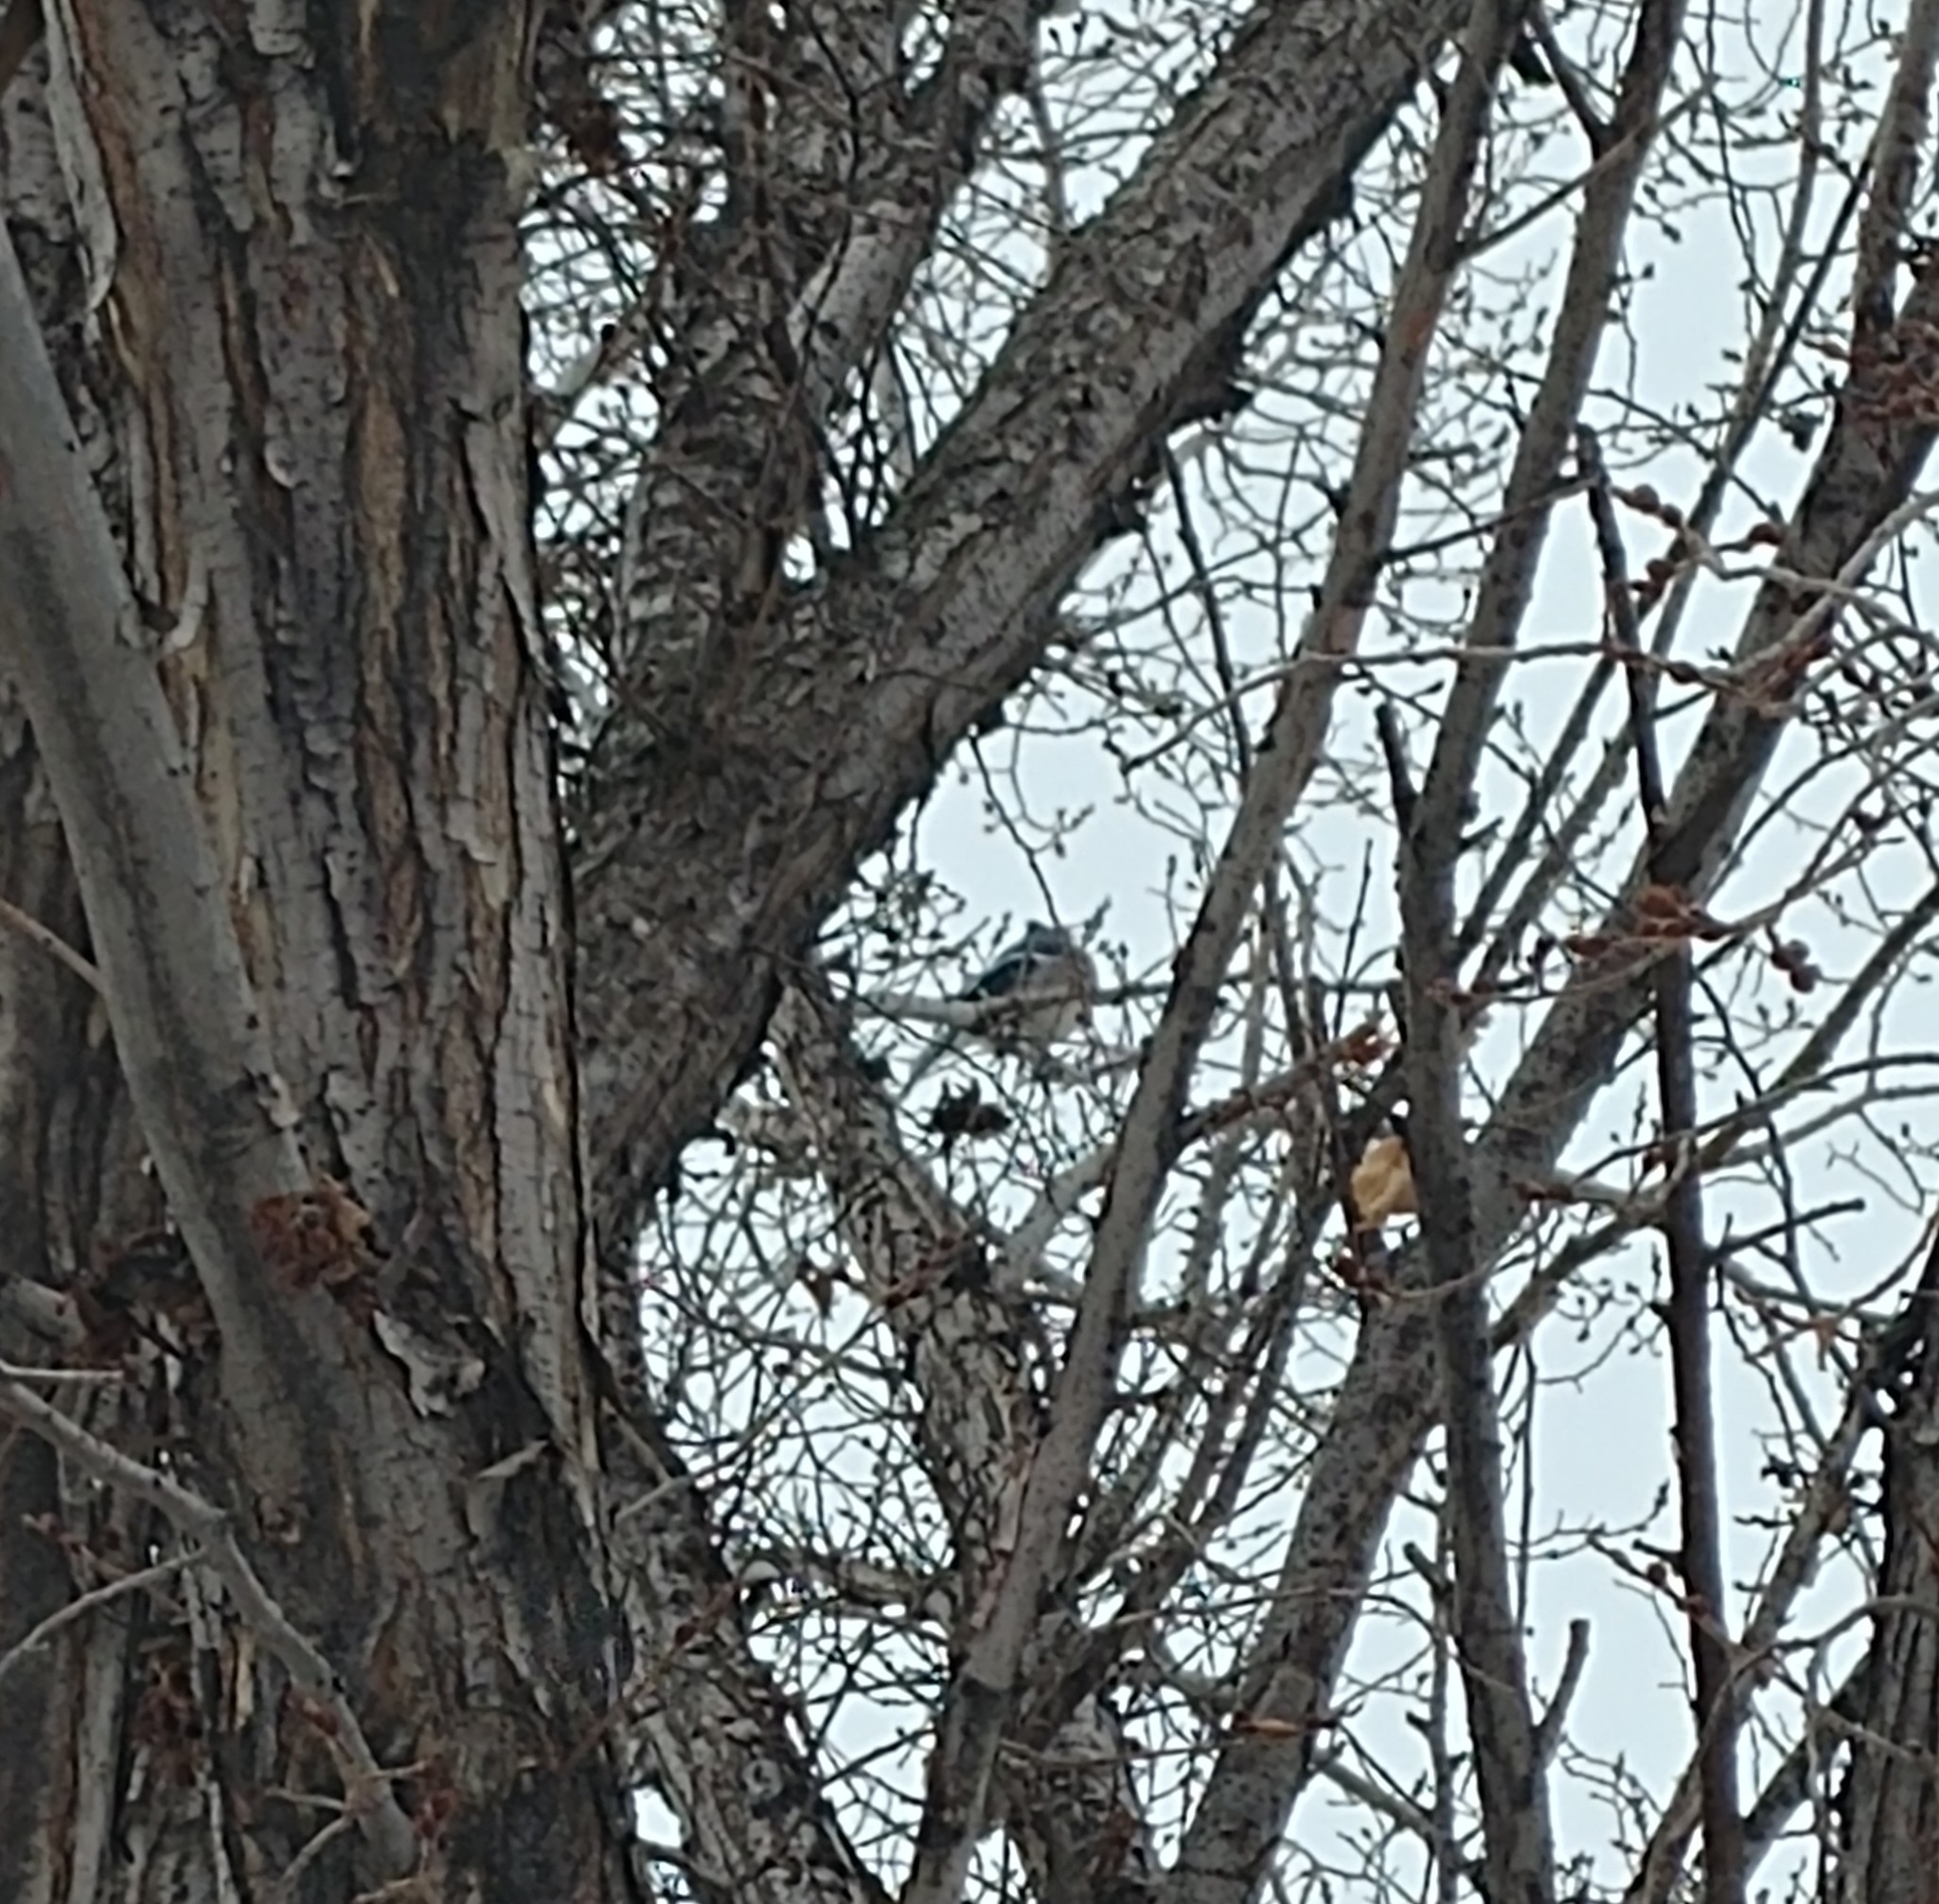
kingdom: Animalia
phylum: Chordata
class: Aves
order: Passeriformes
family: Corvidae
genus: Cyanocitta
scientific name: Cyanocitta cristata
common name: Blue jay
